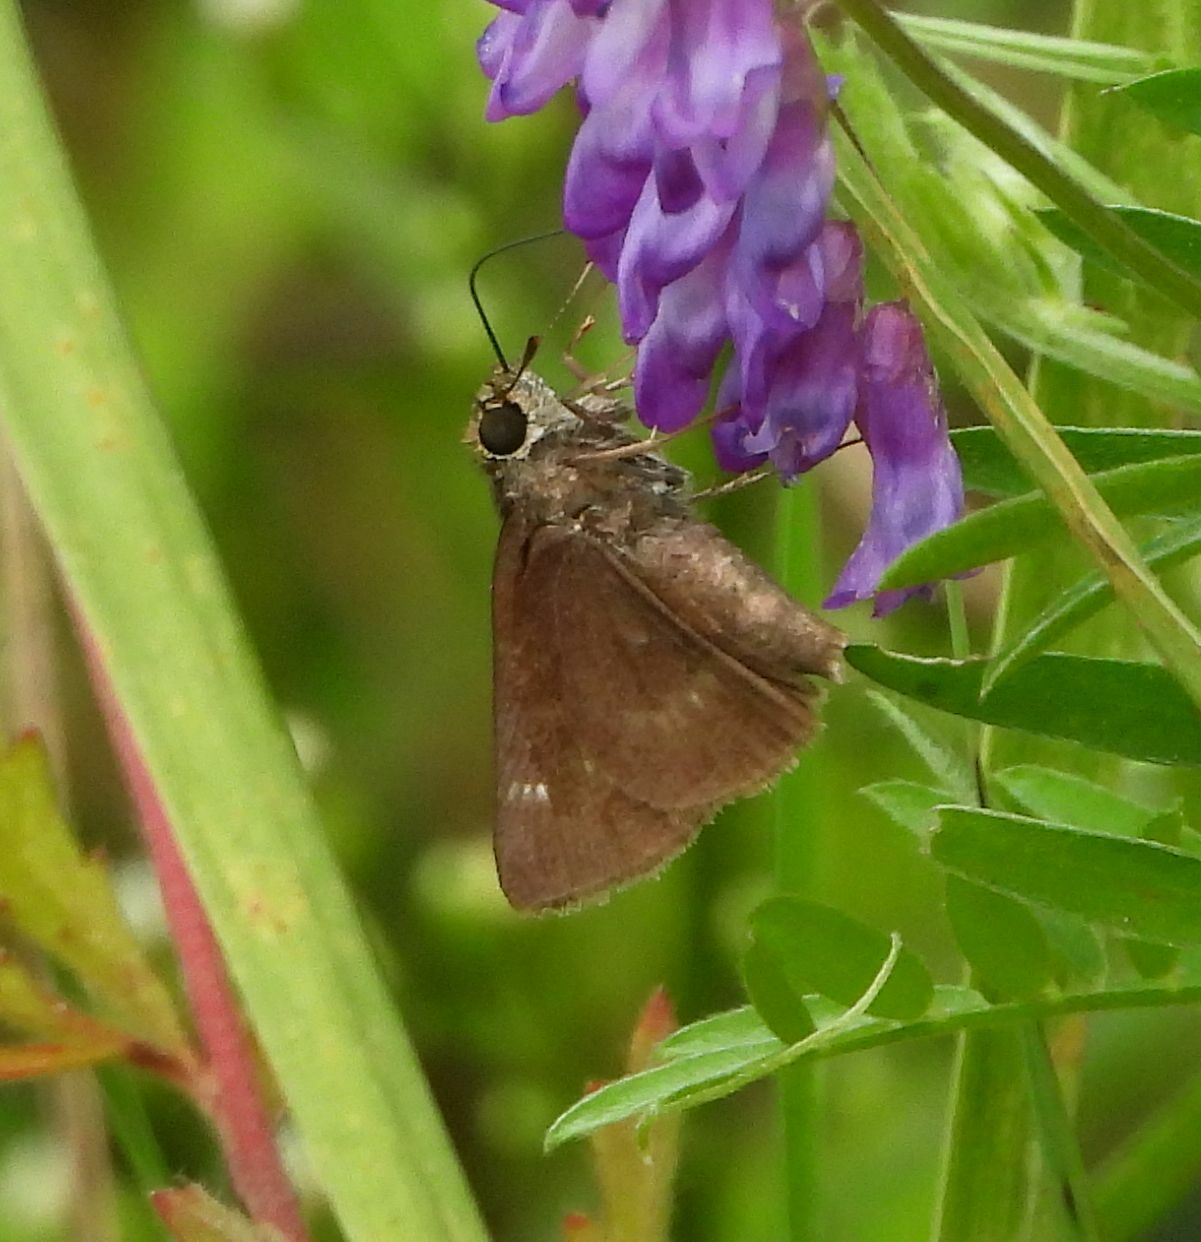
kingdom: Animalia
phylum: Arthropoda
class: Insecta
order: Lepidoptera
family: Hesperiidae
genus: Euphyes
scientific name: Euphyes vestris
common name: Dun skipper
